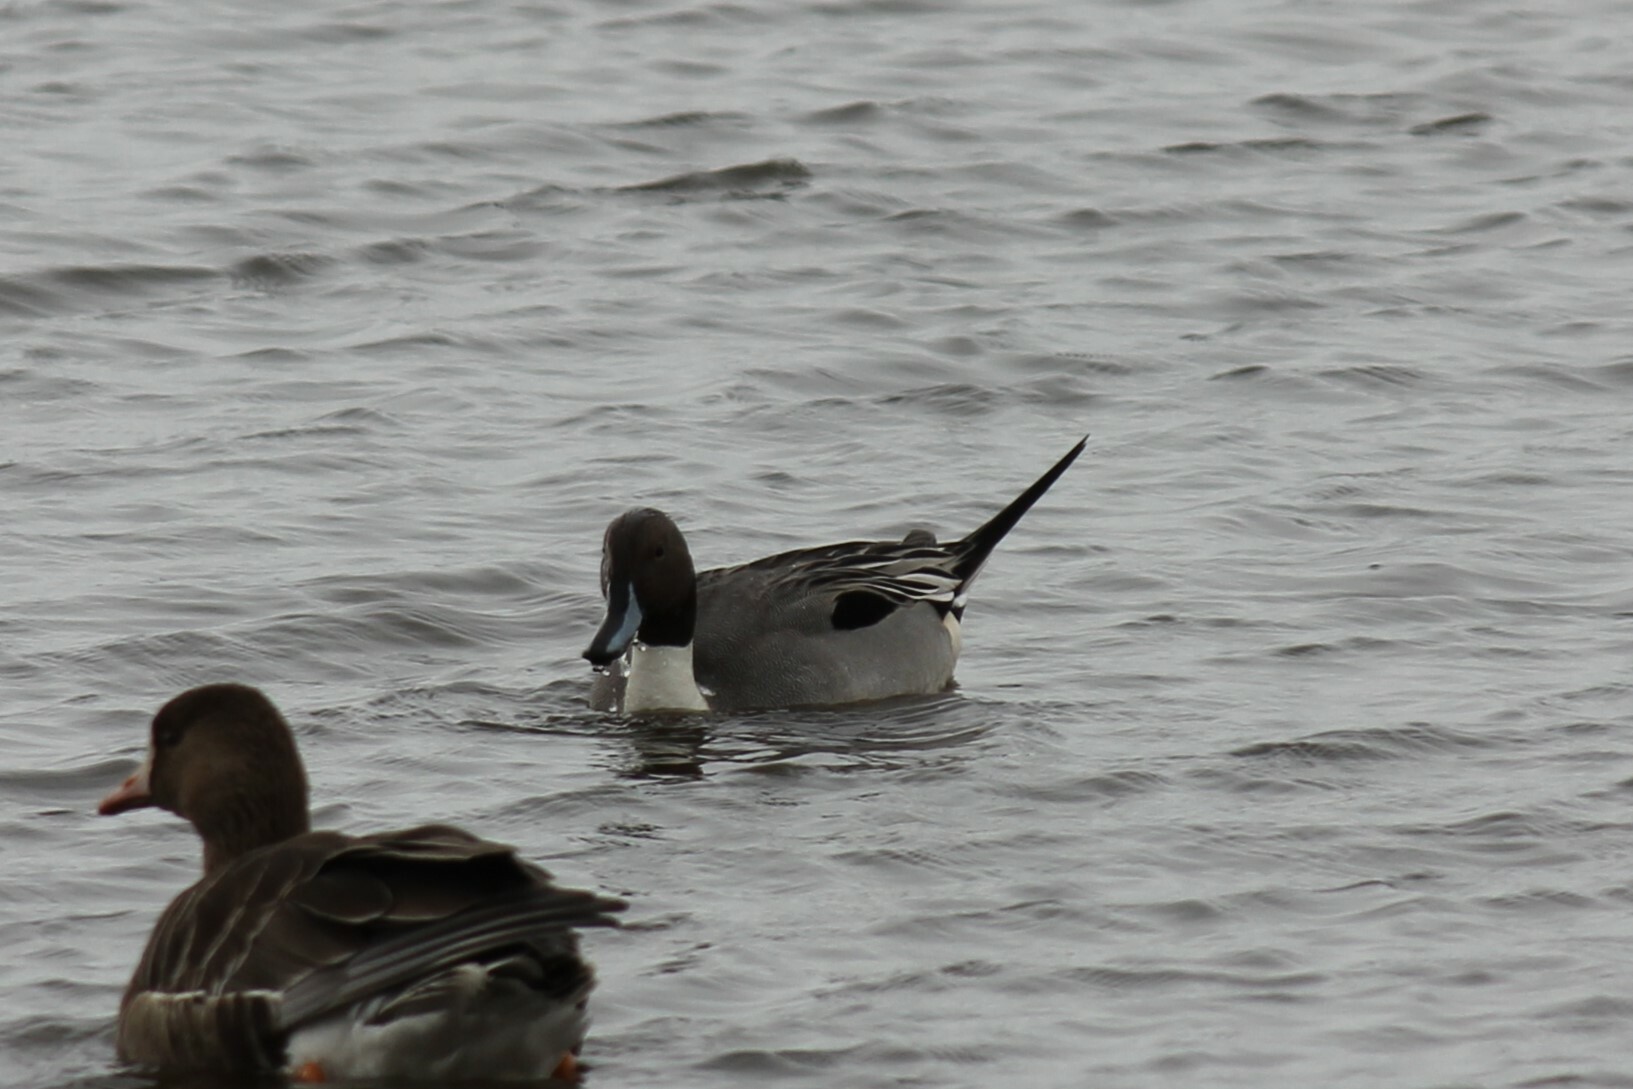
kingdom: Animalia
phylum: Chordata
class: Aves
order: Anseriformes
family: Anatidae
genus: Anas
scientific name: Anas acuta
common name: Northern pintail
